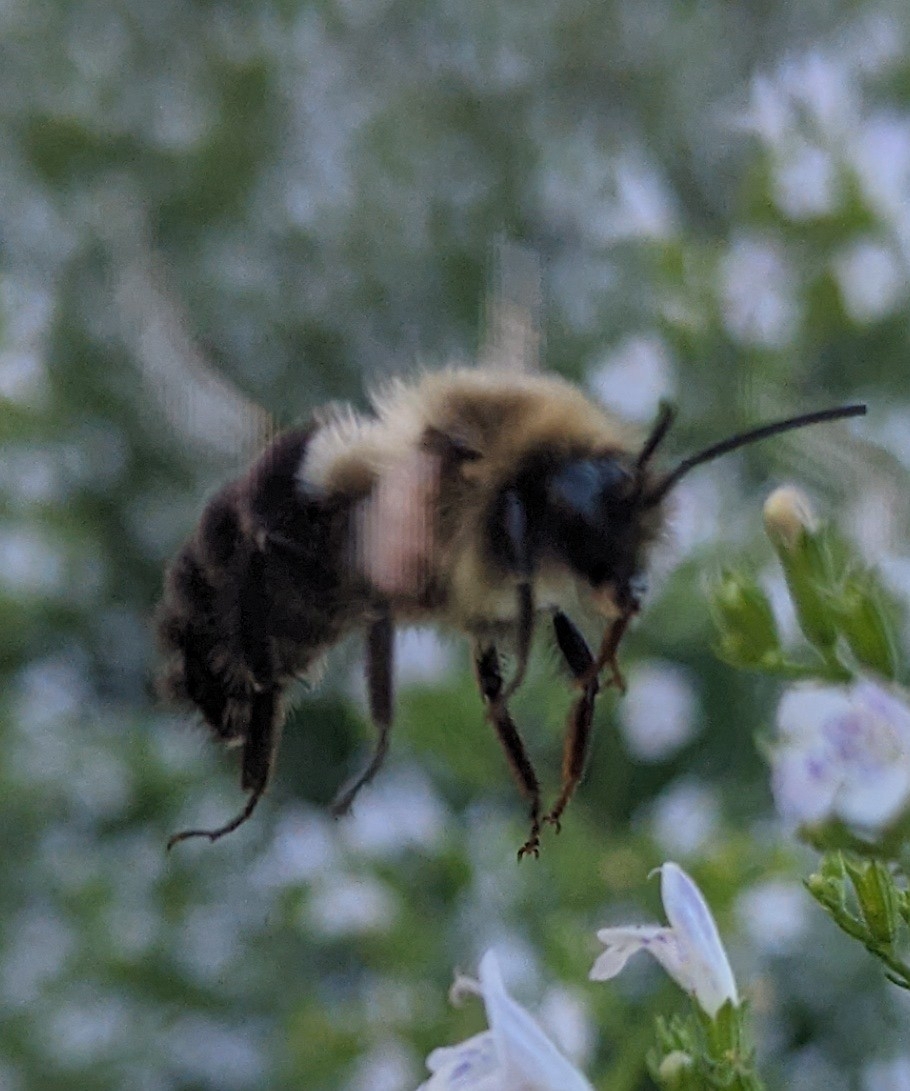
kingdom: Animalia
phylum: Arthropoda
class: Insecta
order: Hymenoptera
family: Apidae
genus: Bombus
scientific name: Bombus impatiens
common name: Common eastern bumble bee
